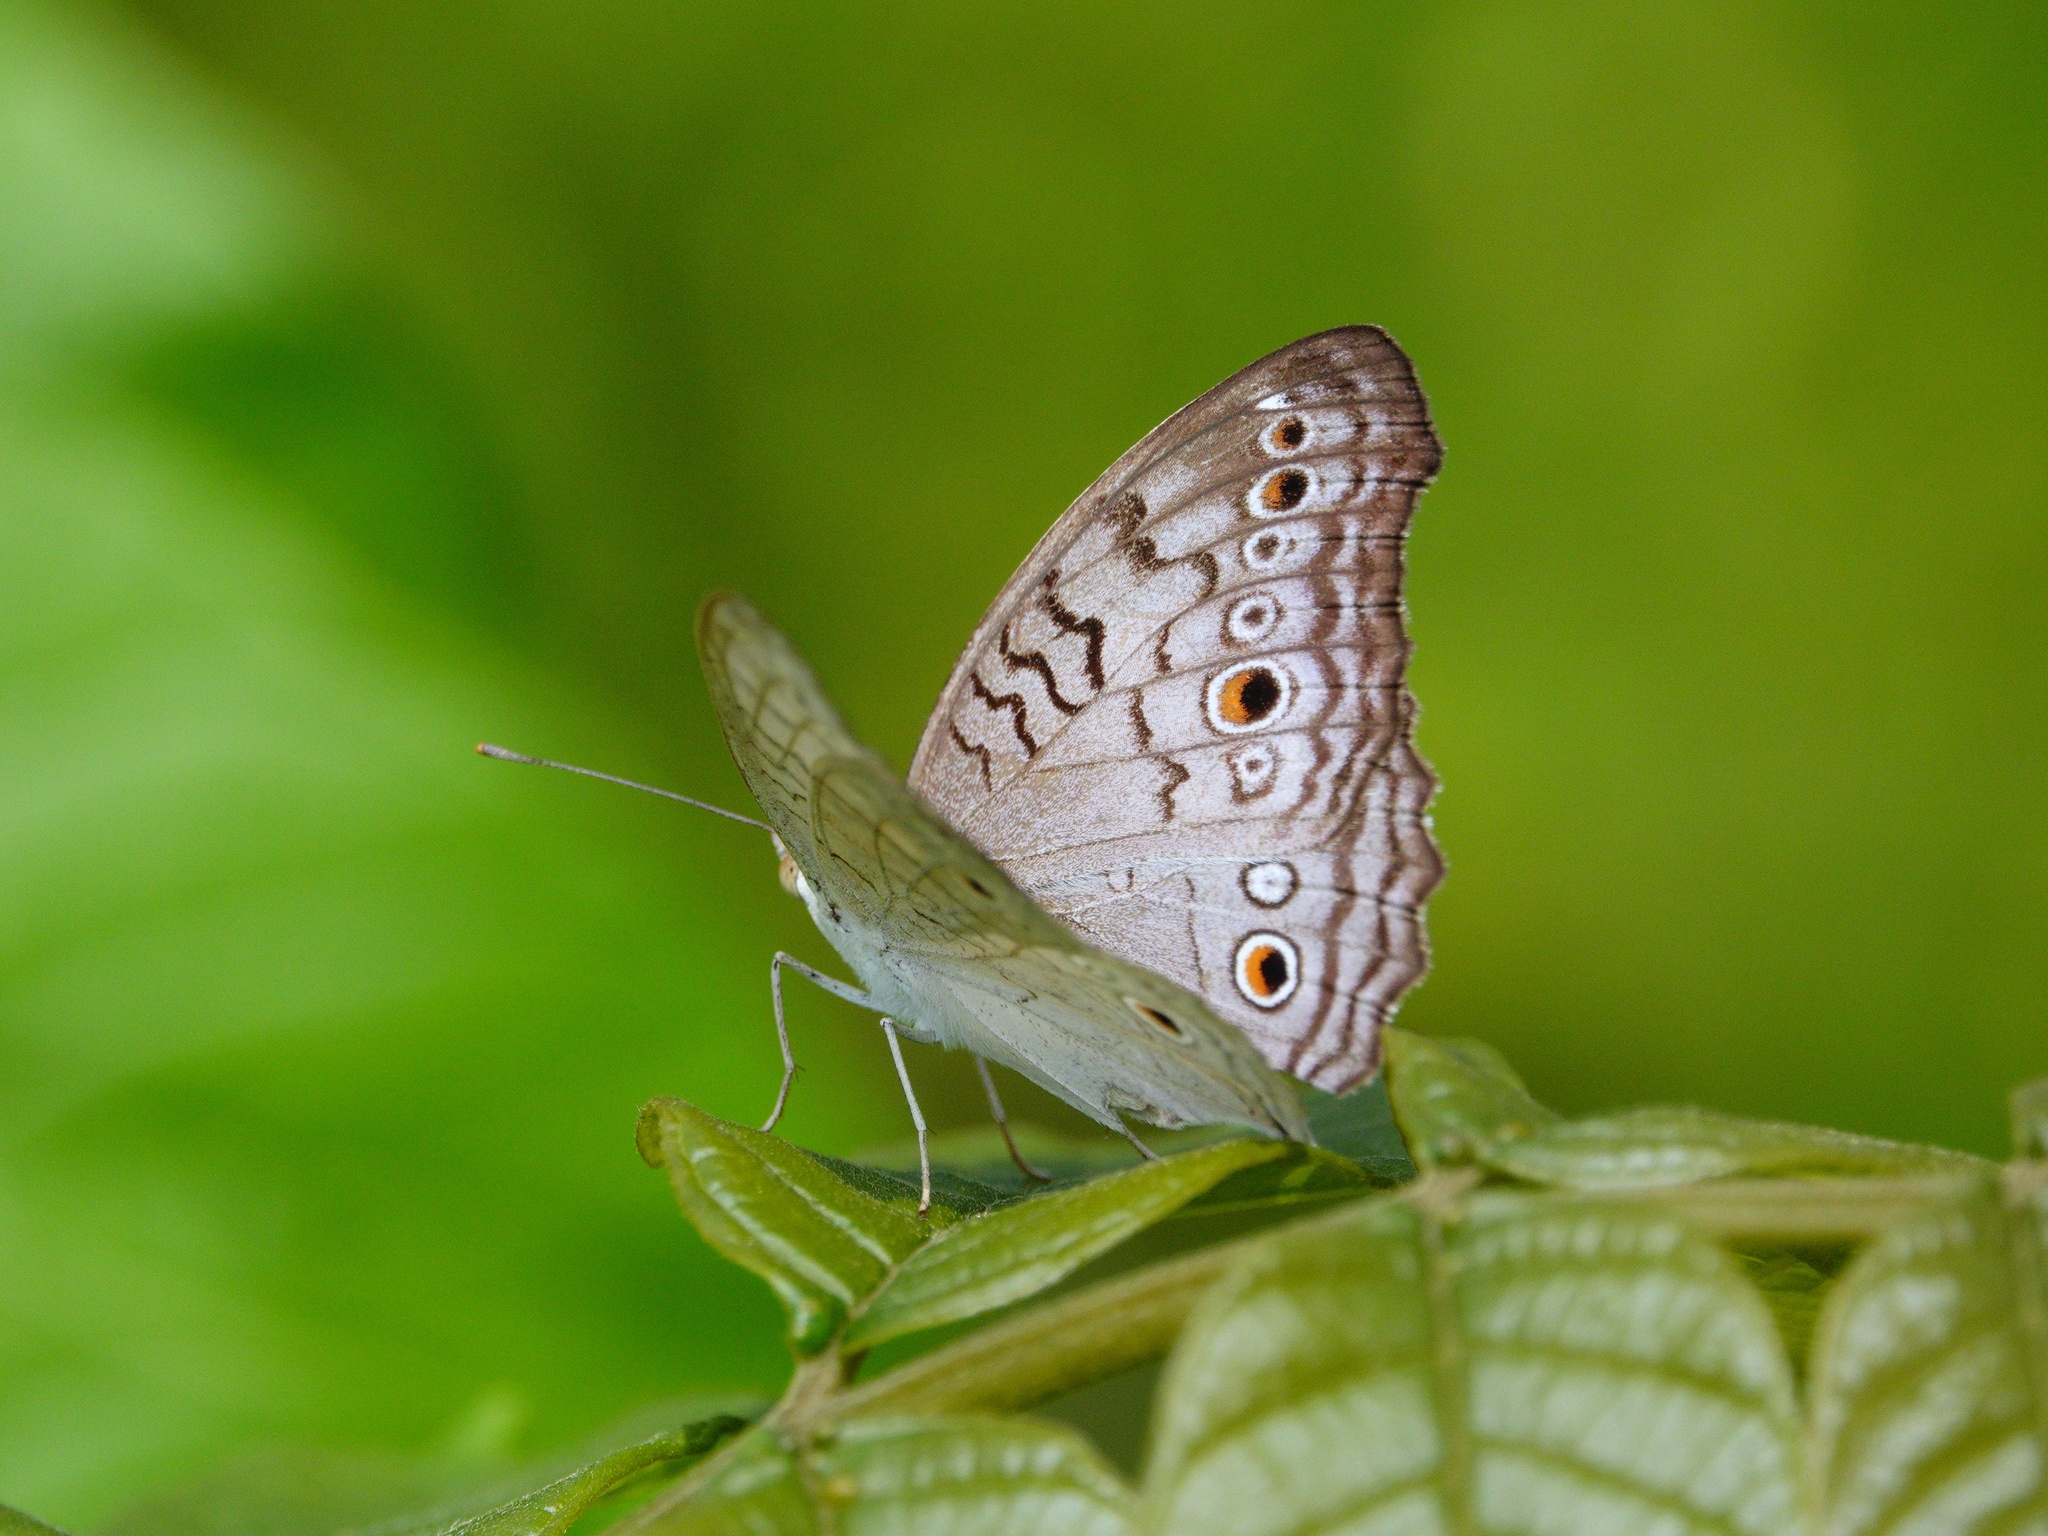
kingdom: Animalia
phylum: Arthropoda
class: Insecta
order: Lepidoptera
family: Nymphalidae
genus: Junonia
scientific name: Junonia atlites
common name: Grey pansy
